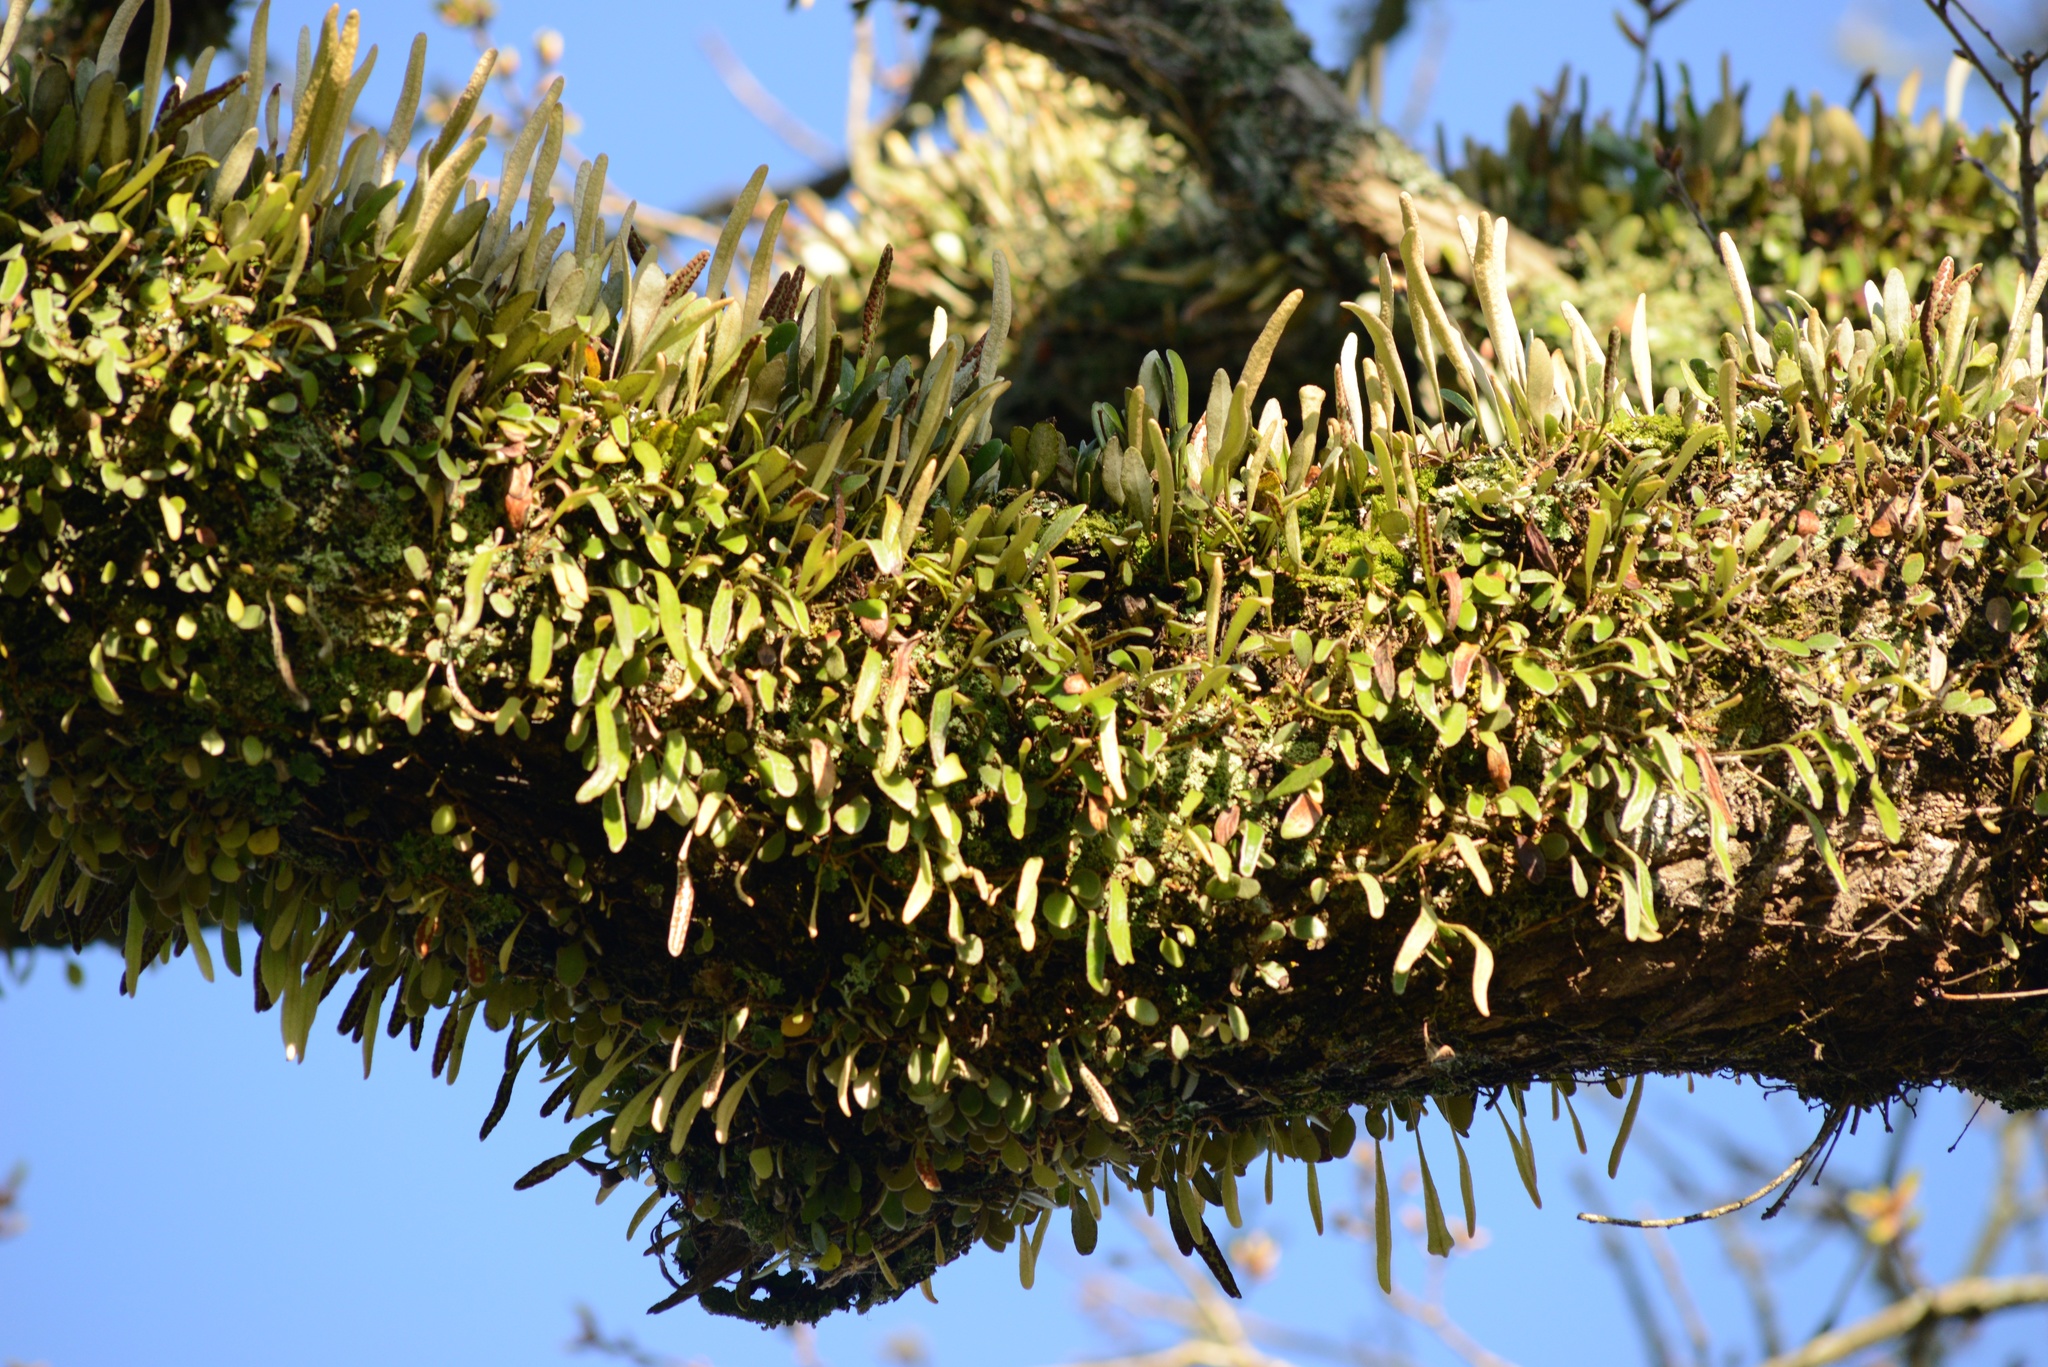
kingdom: Plantae
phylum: Tracheophyta
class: Polypodiopsida
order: Polypodiales
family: Polypodiaceae
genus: Pyrrosia
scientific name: Pyrrosia eleagnifolia
